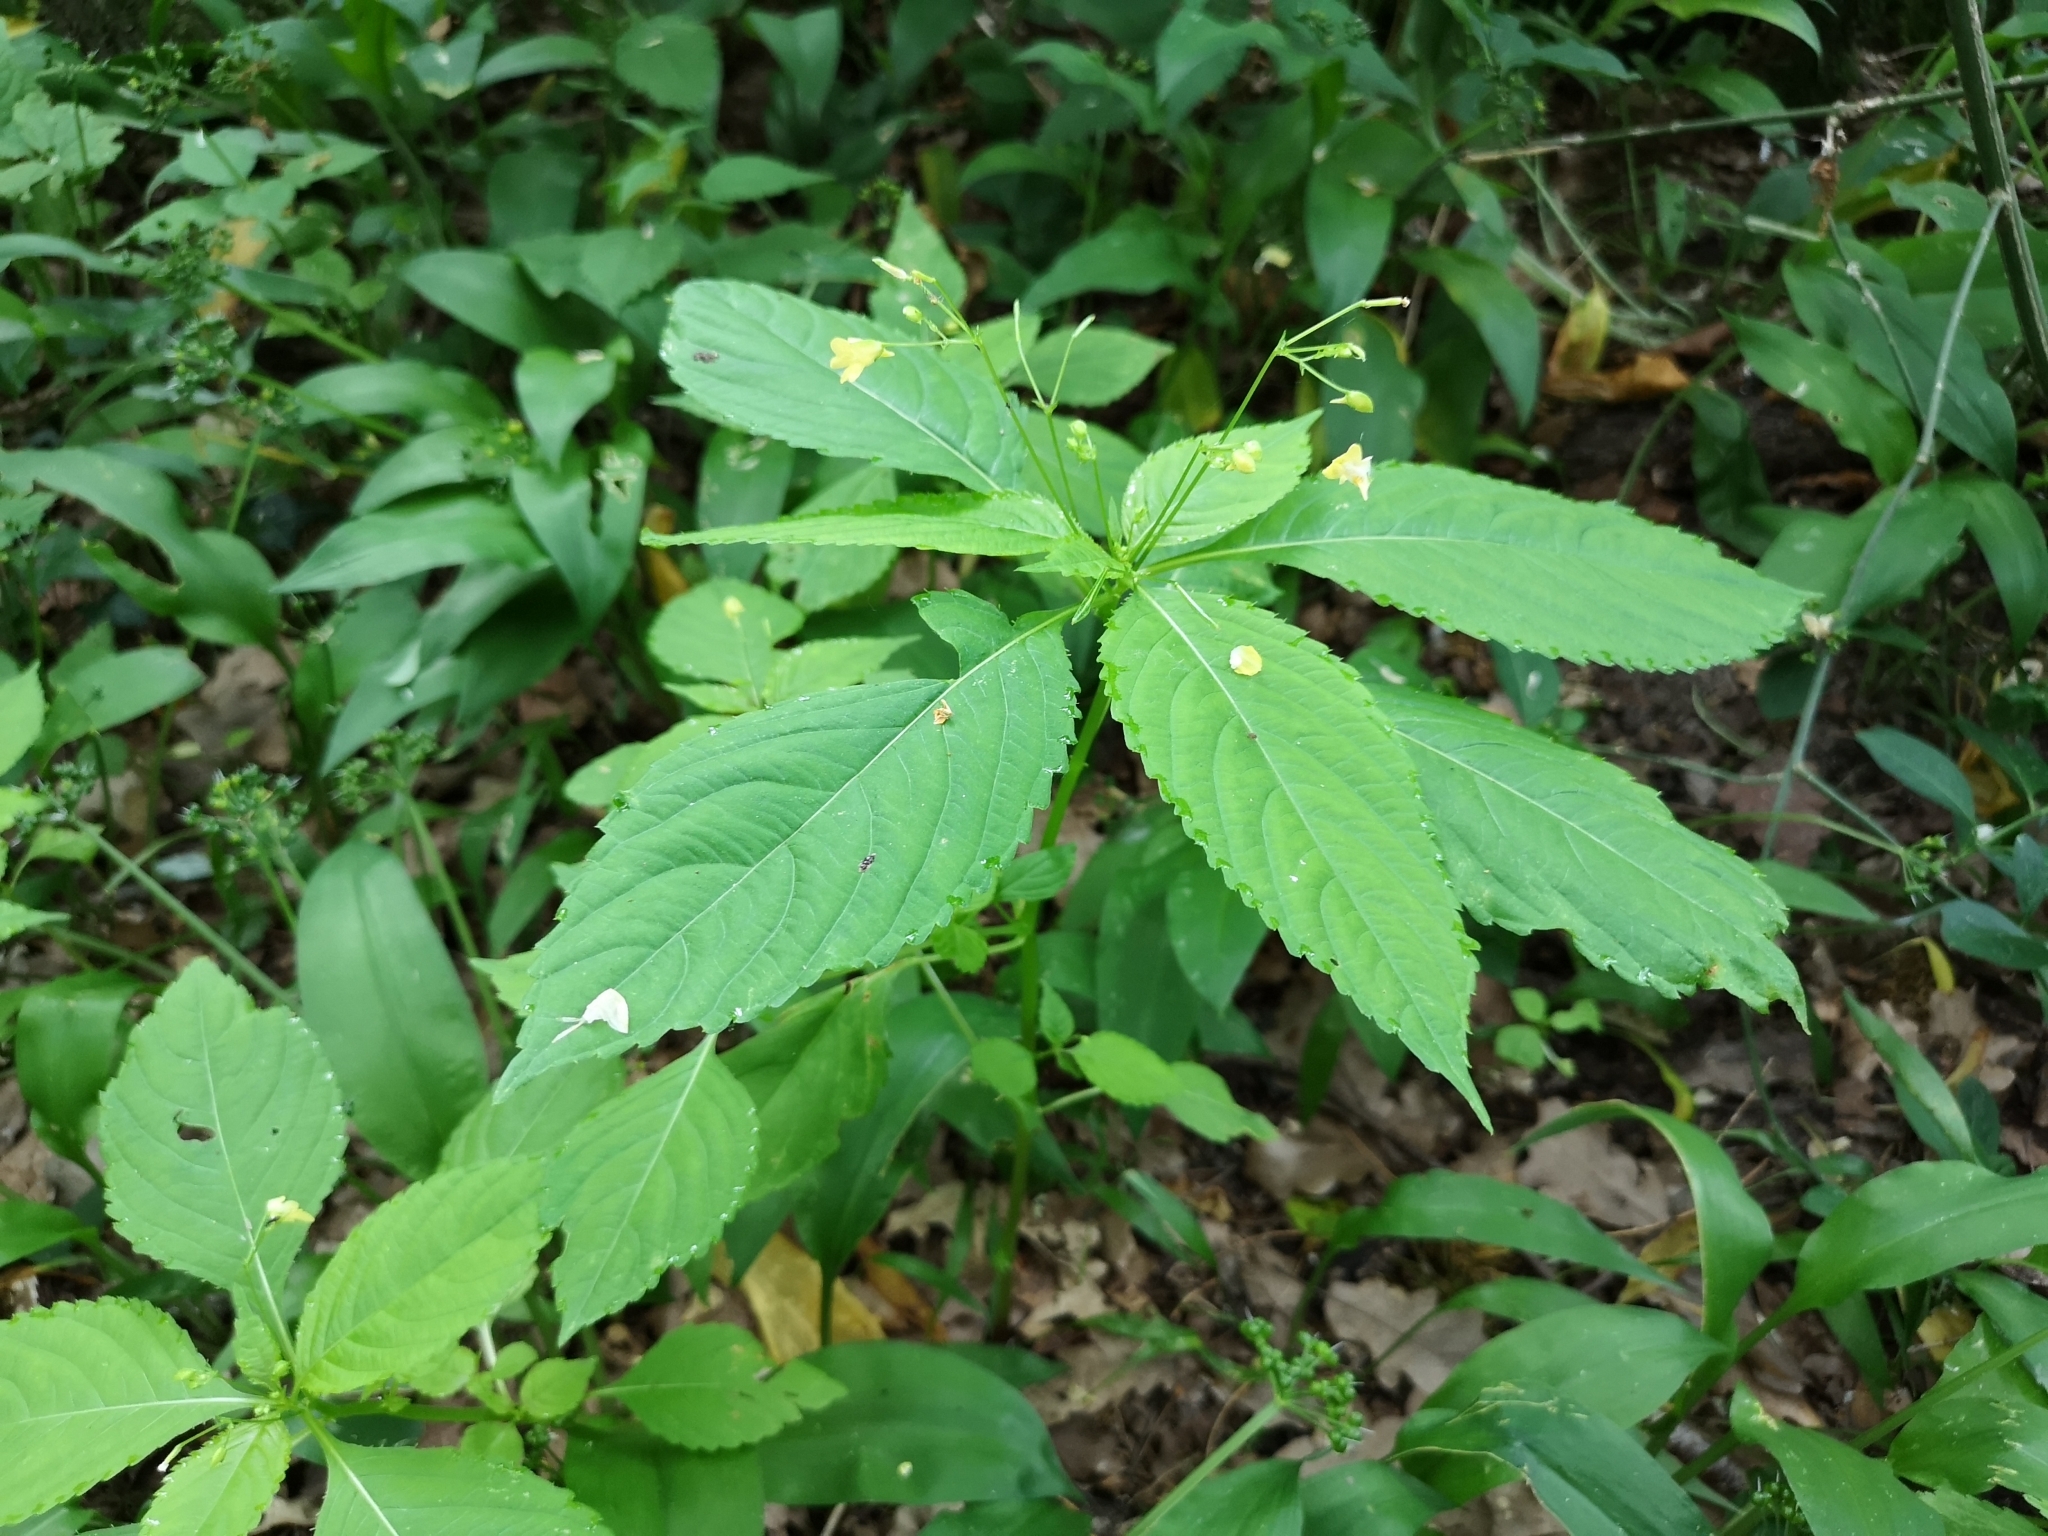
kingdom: Plantae
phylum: Tracheophyta
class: Magnoliopsida
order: Ericales
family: Balsaminaceae
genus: Impatiens
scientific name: Impatiens parviflora
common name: Small balsam
